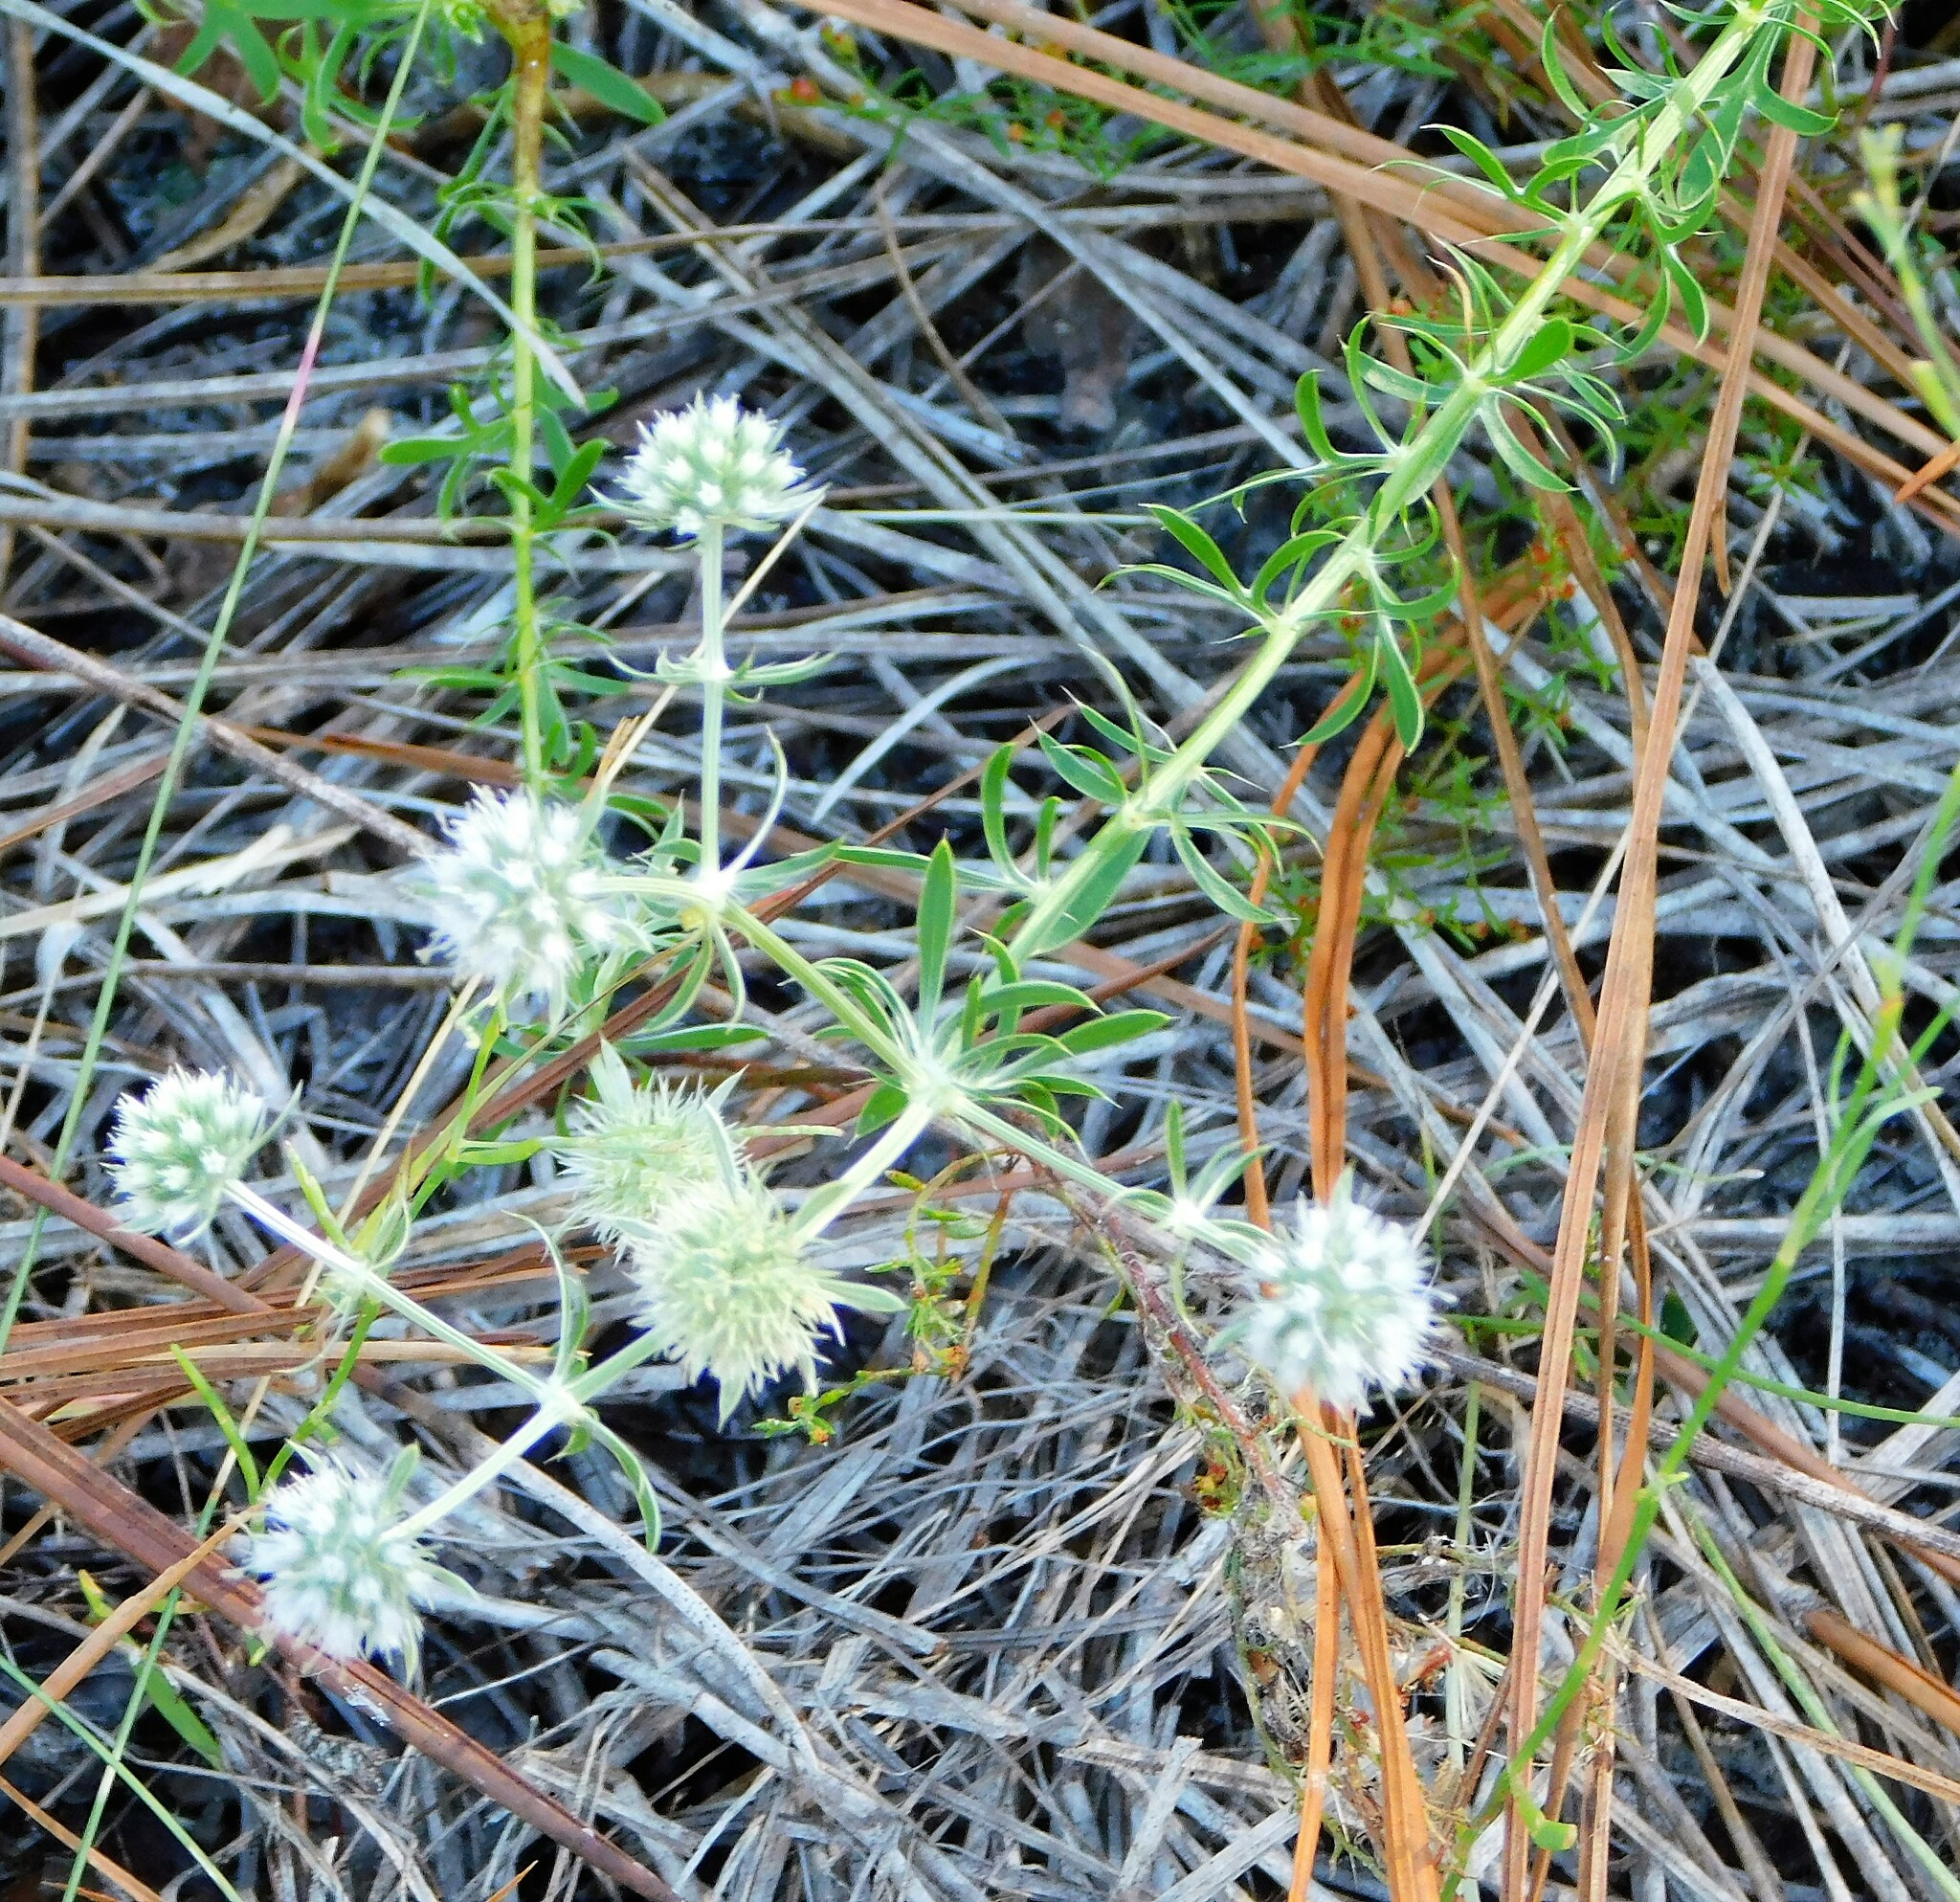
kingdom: Plantae
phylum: Tracheophyta
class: Magnoliopsida
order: Apiales
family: Apiaceae
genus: Eryngium
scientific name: Eryngium aromaticum
